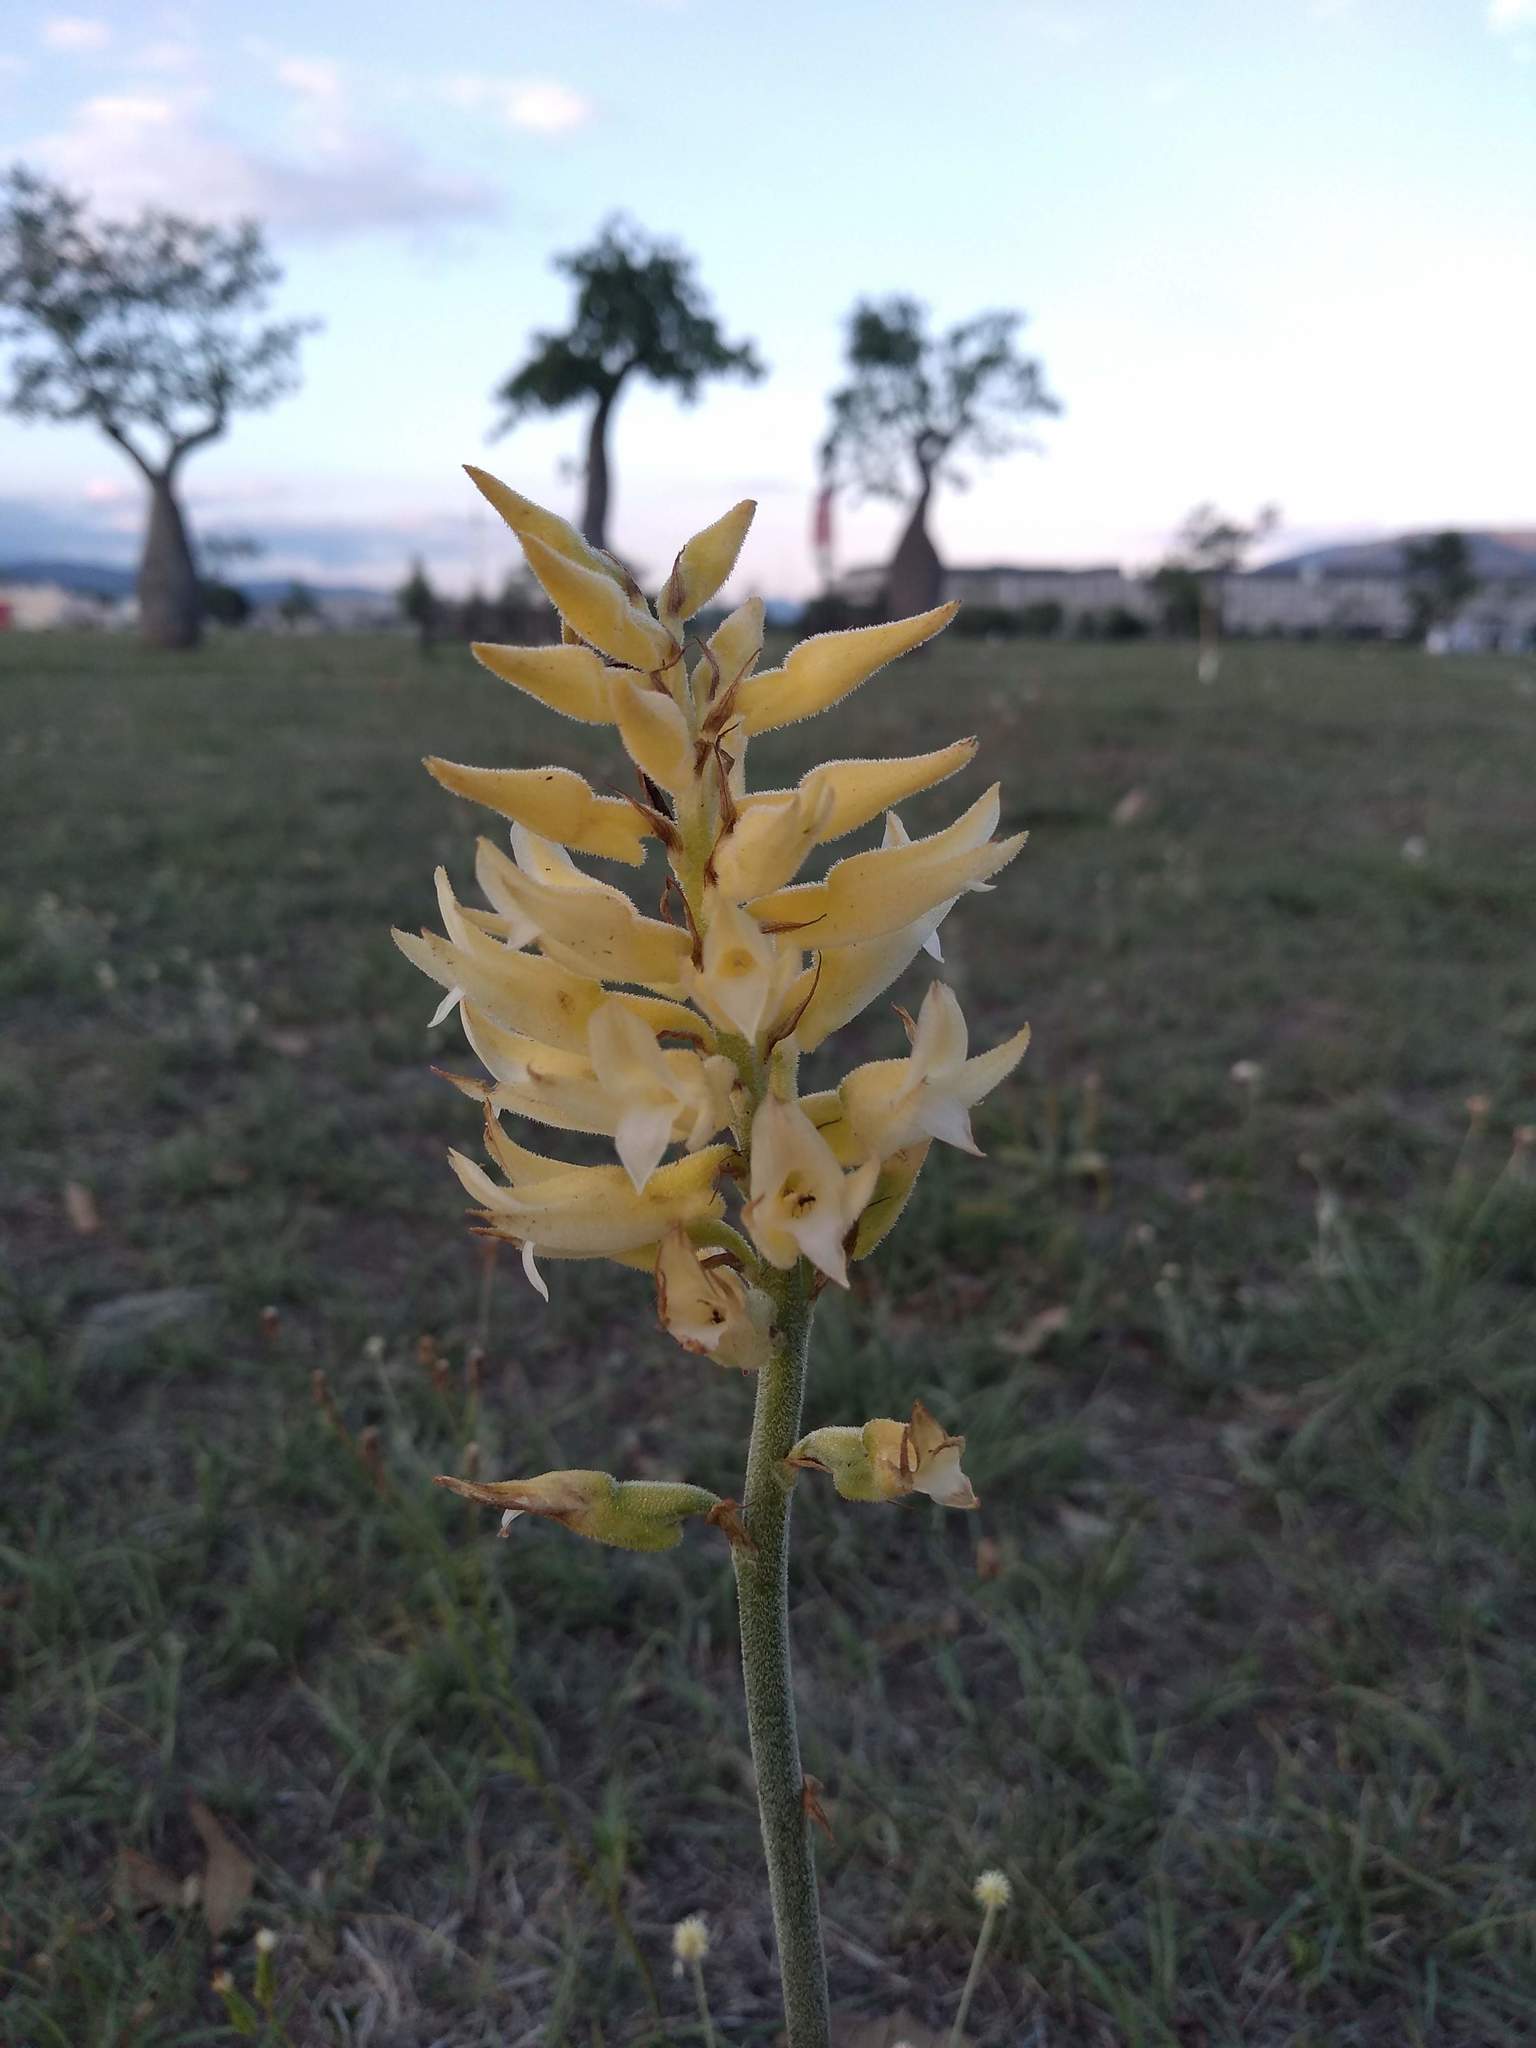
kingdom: Plantae
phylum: Tracheophyta
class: Liliopsida
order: Asparagales
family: Orchidaceae
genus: Sacoila
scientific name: Sacoila lanceolata
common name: Leafless beaked ladiestresses
